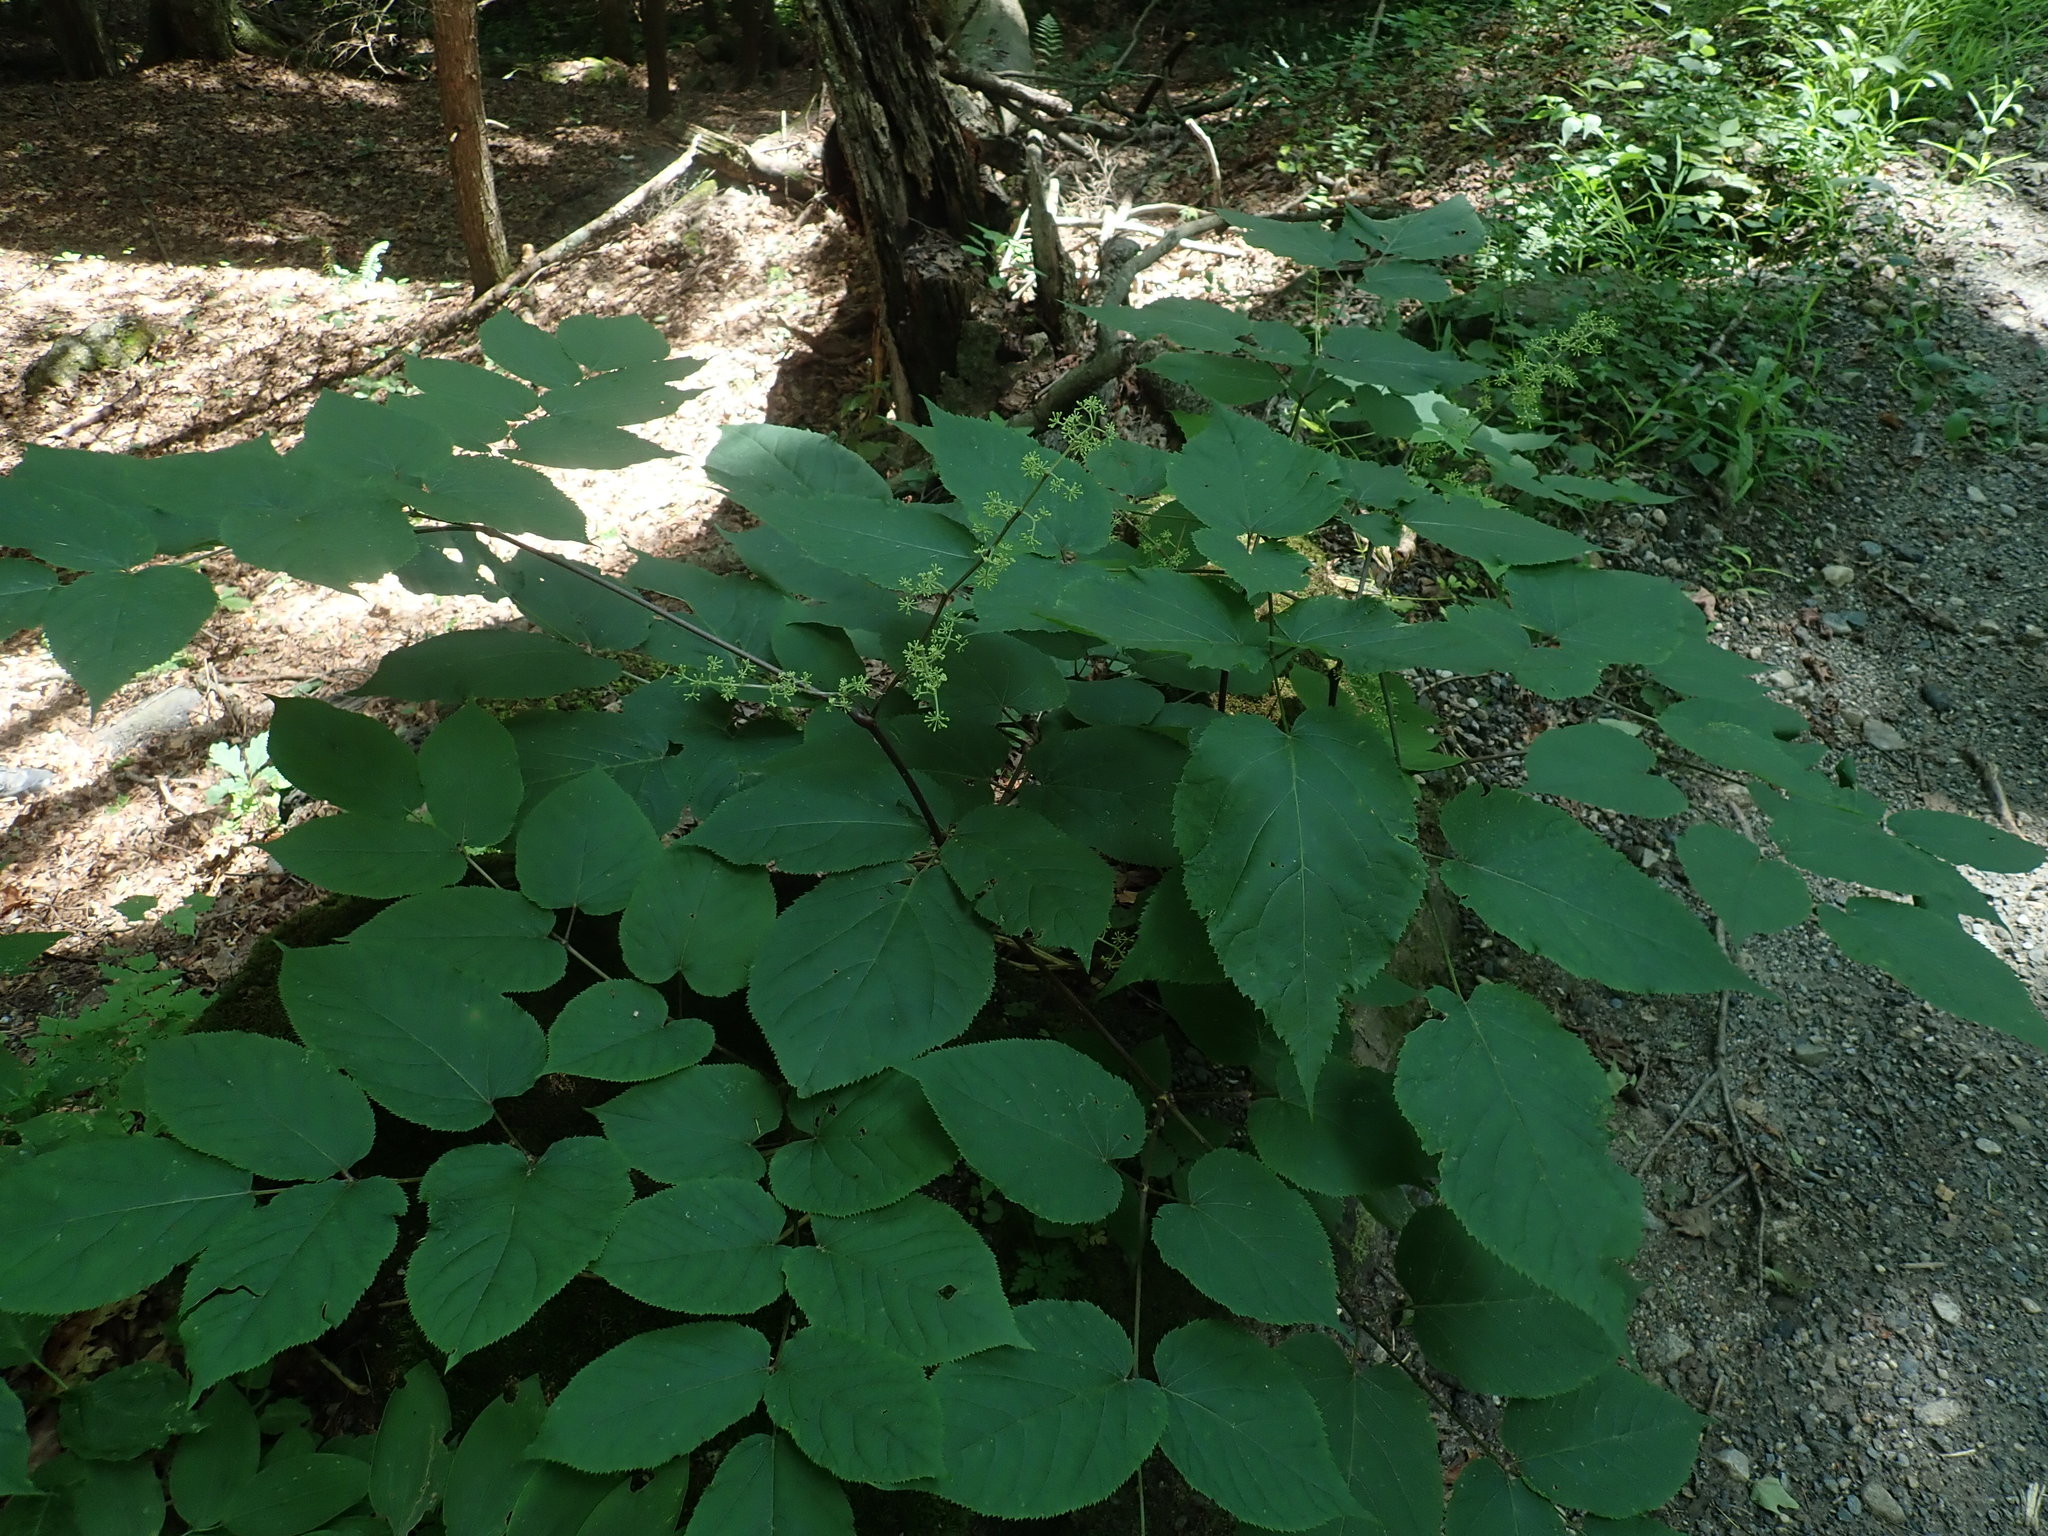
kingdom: Plantae
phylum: Tracheophyta
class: Magnoliopsida
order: Apiales
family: Araliaceae
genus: Aralia
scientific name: Aralia racemosa
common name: American-spikenard
